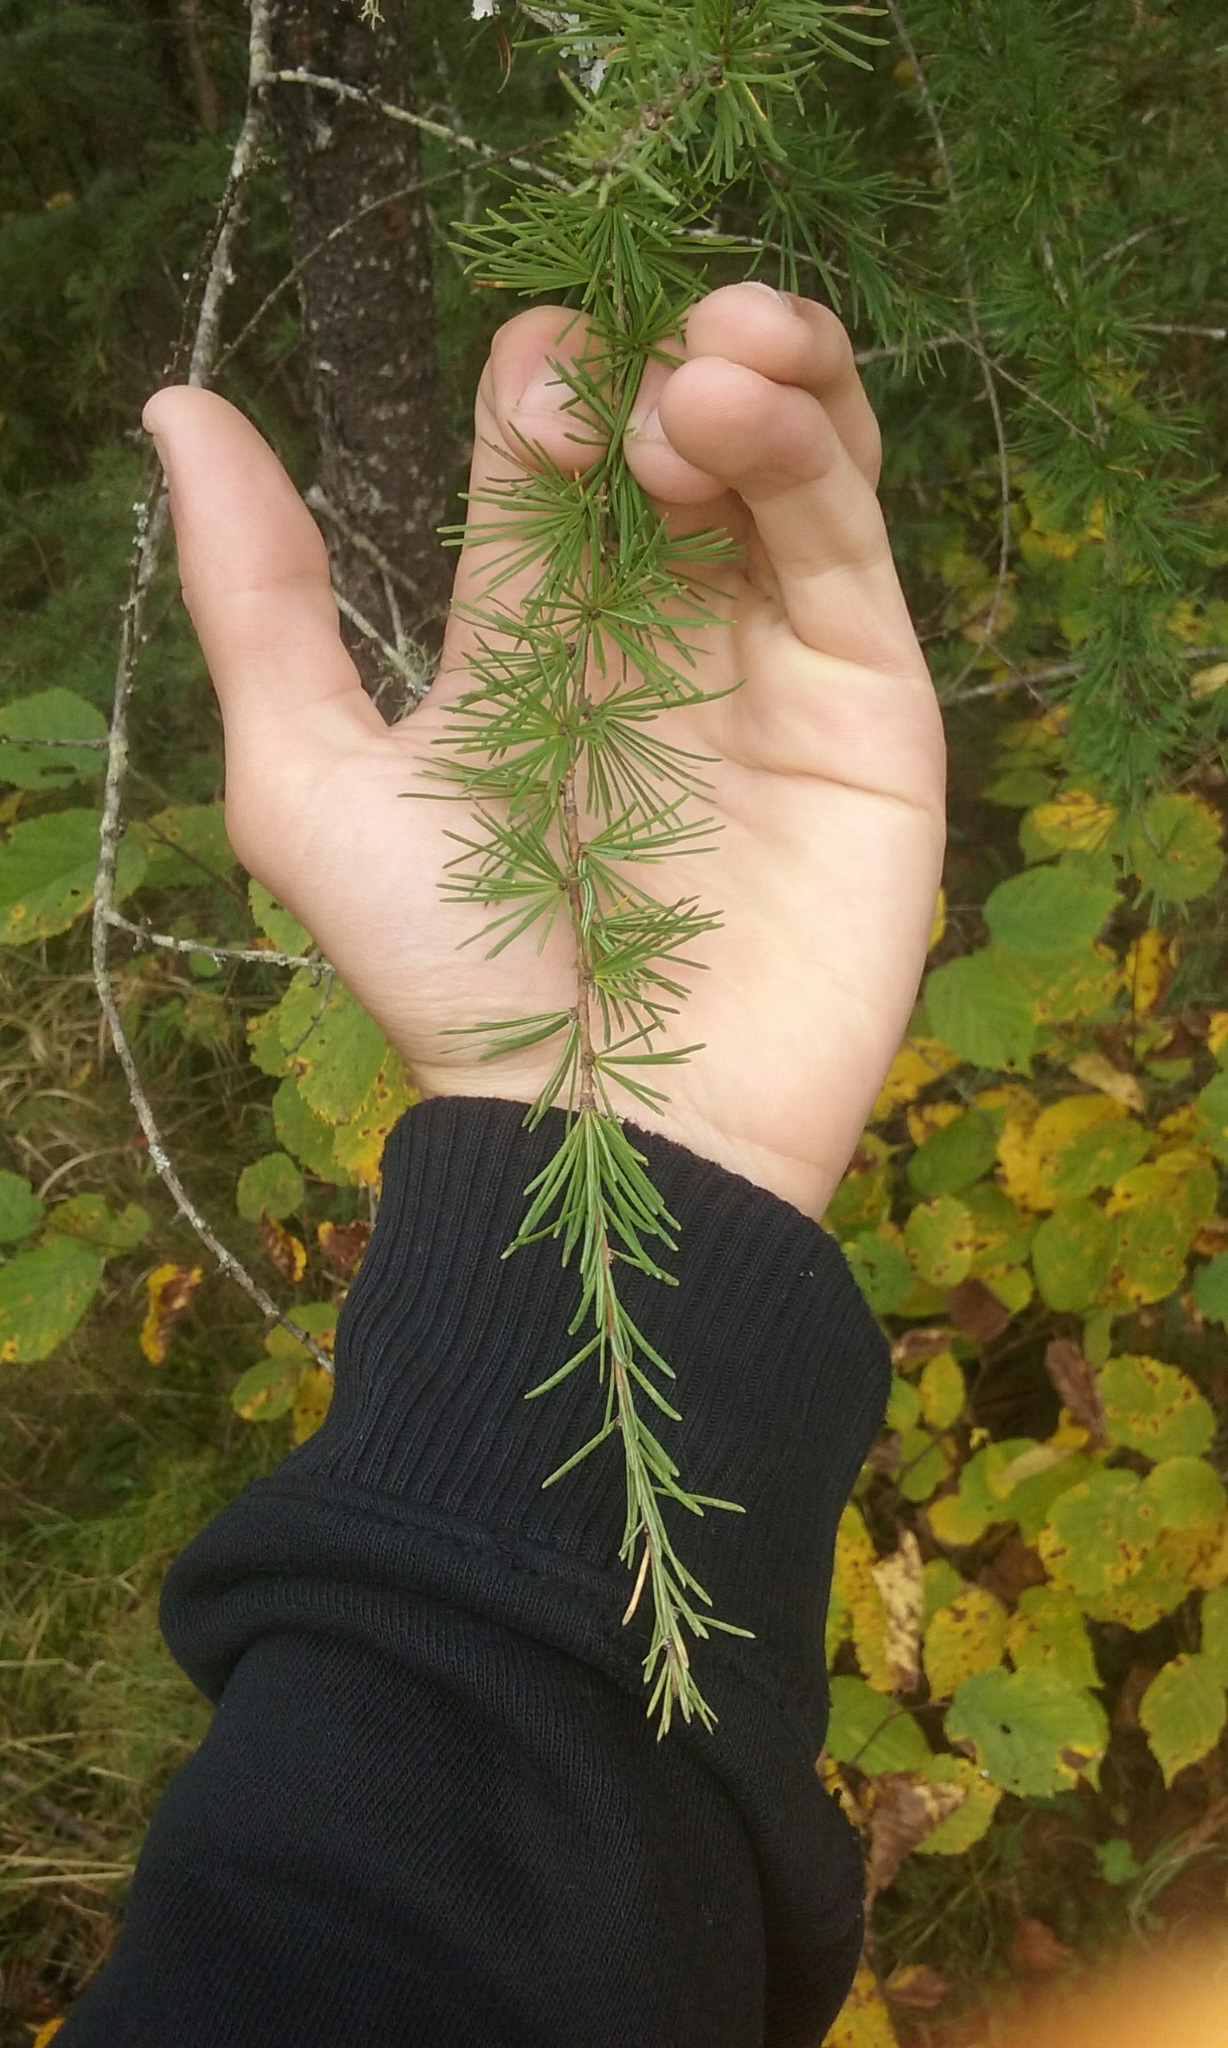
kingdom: Plantae
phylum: Tracheophyta
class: Pinopsida
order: Pinales
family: Pinaceae
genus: Larix
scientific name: Larix laricina
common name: American larch
